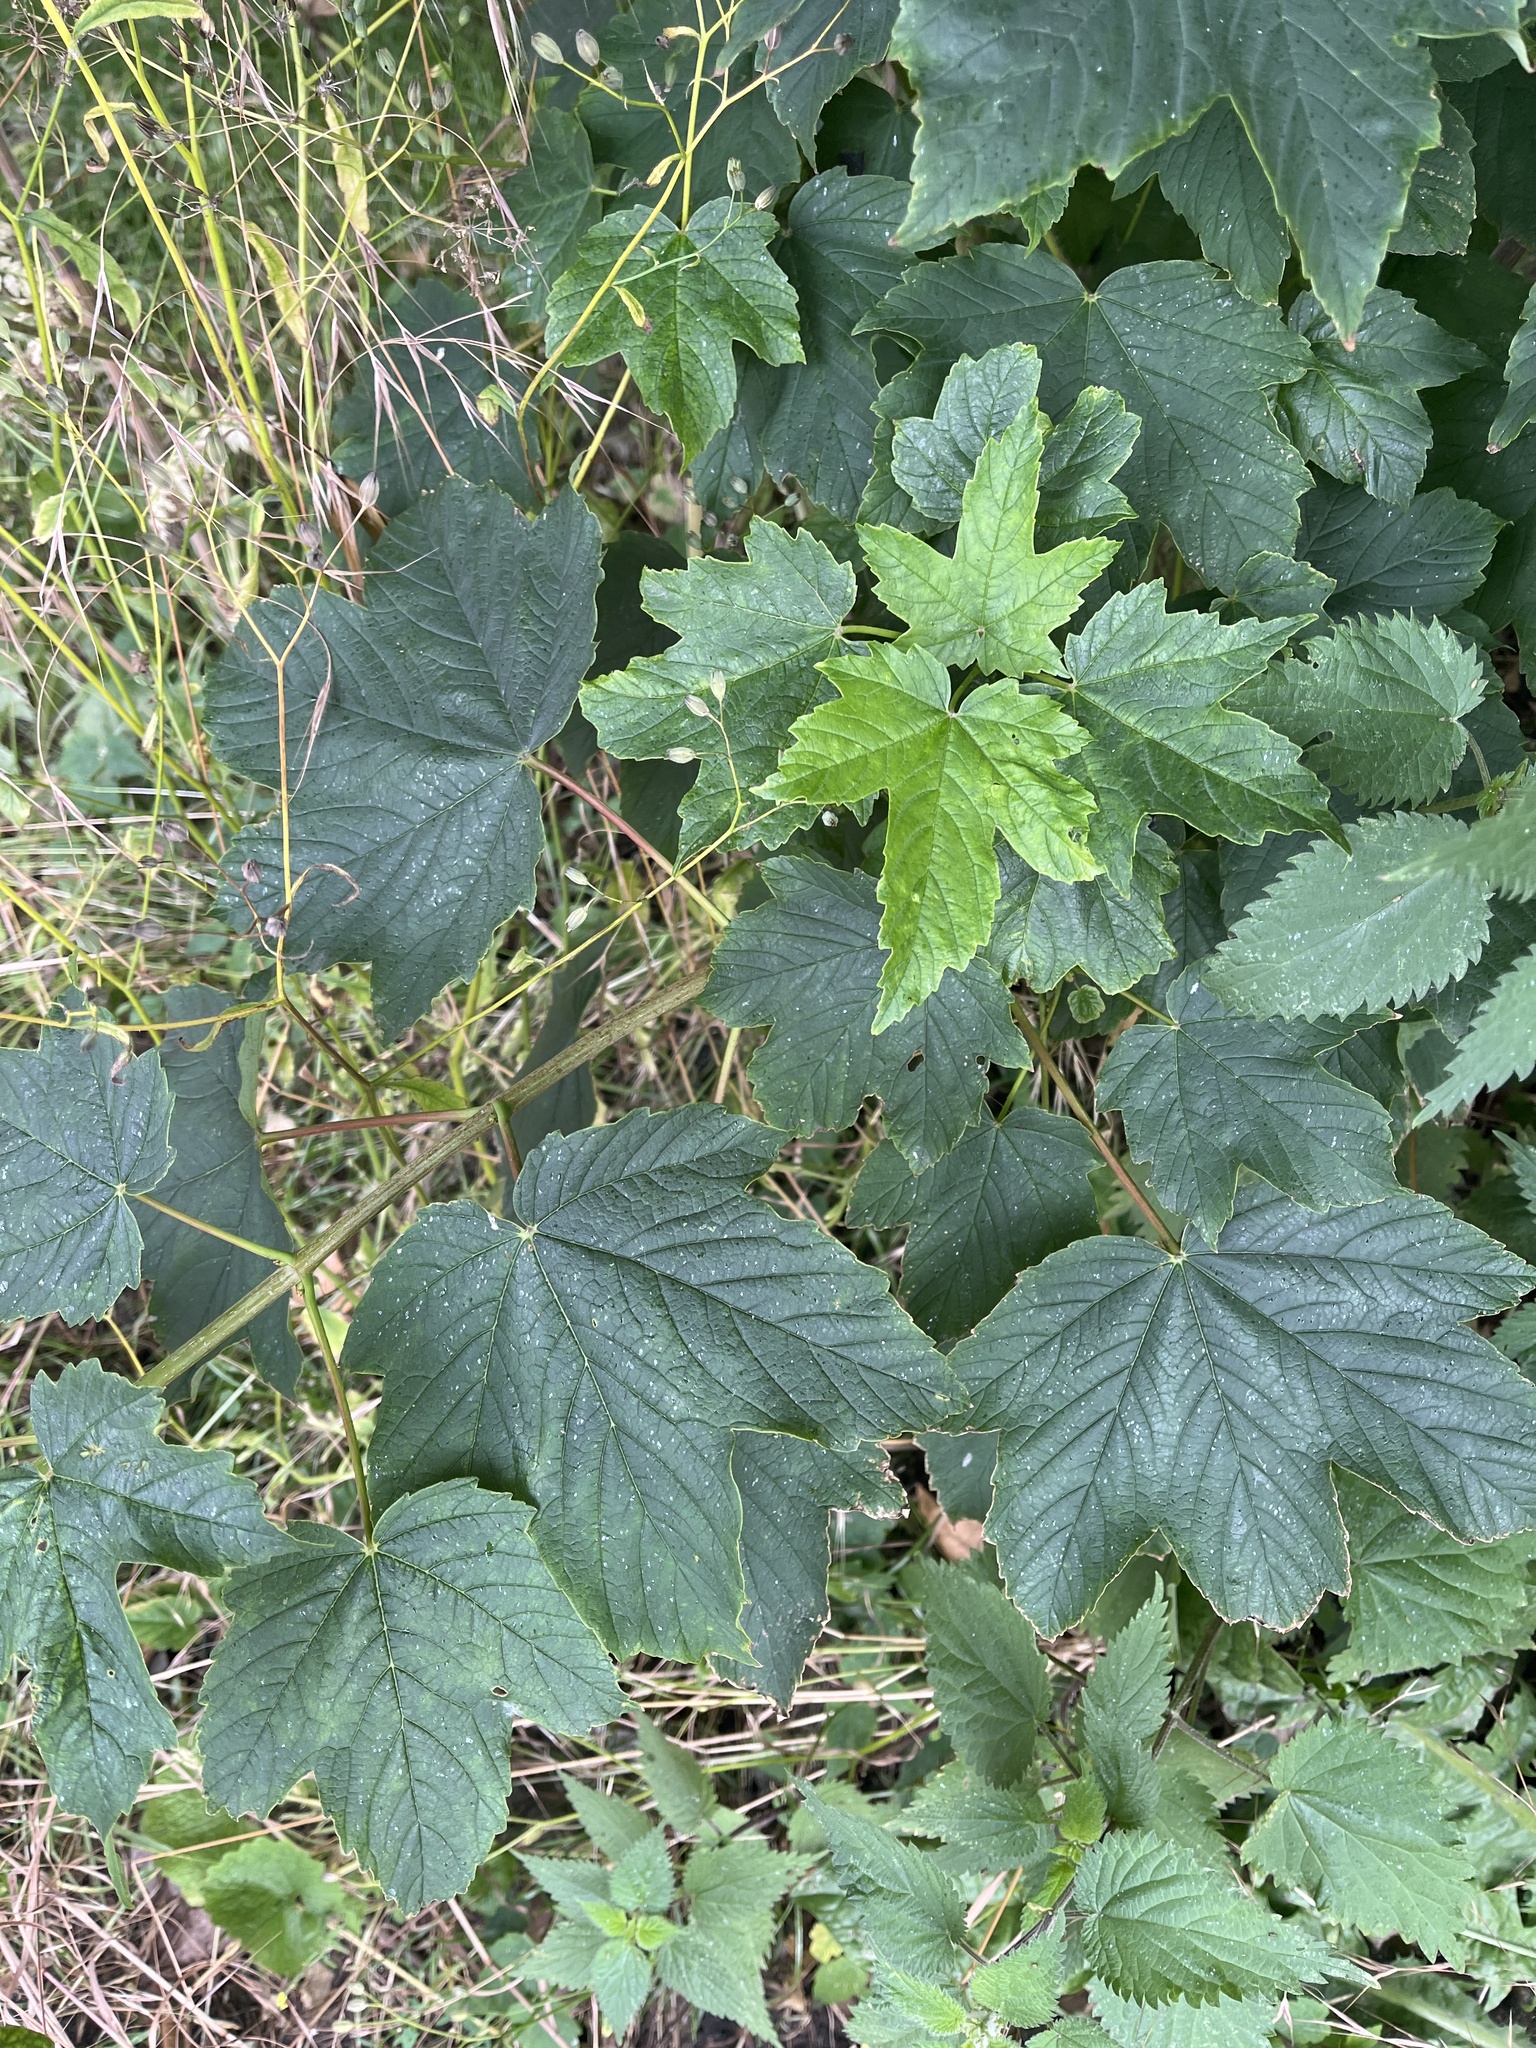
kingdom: Plantae
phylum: Tracheophyta
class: Magnoliopsida
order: Sapindales
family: Sapindaceae
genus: Acer
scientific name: Acer pseudoplatanus
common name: Sycamore
